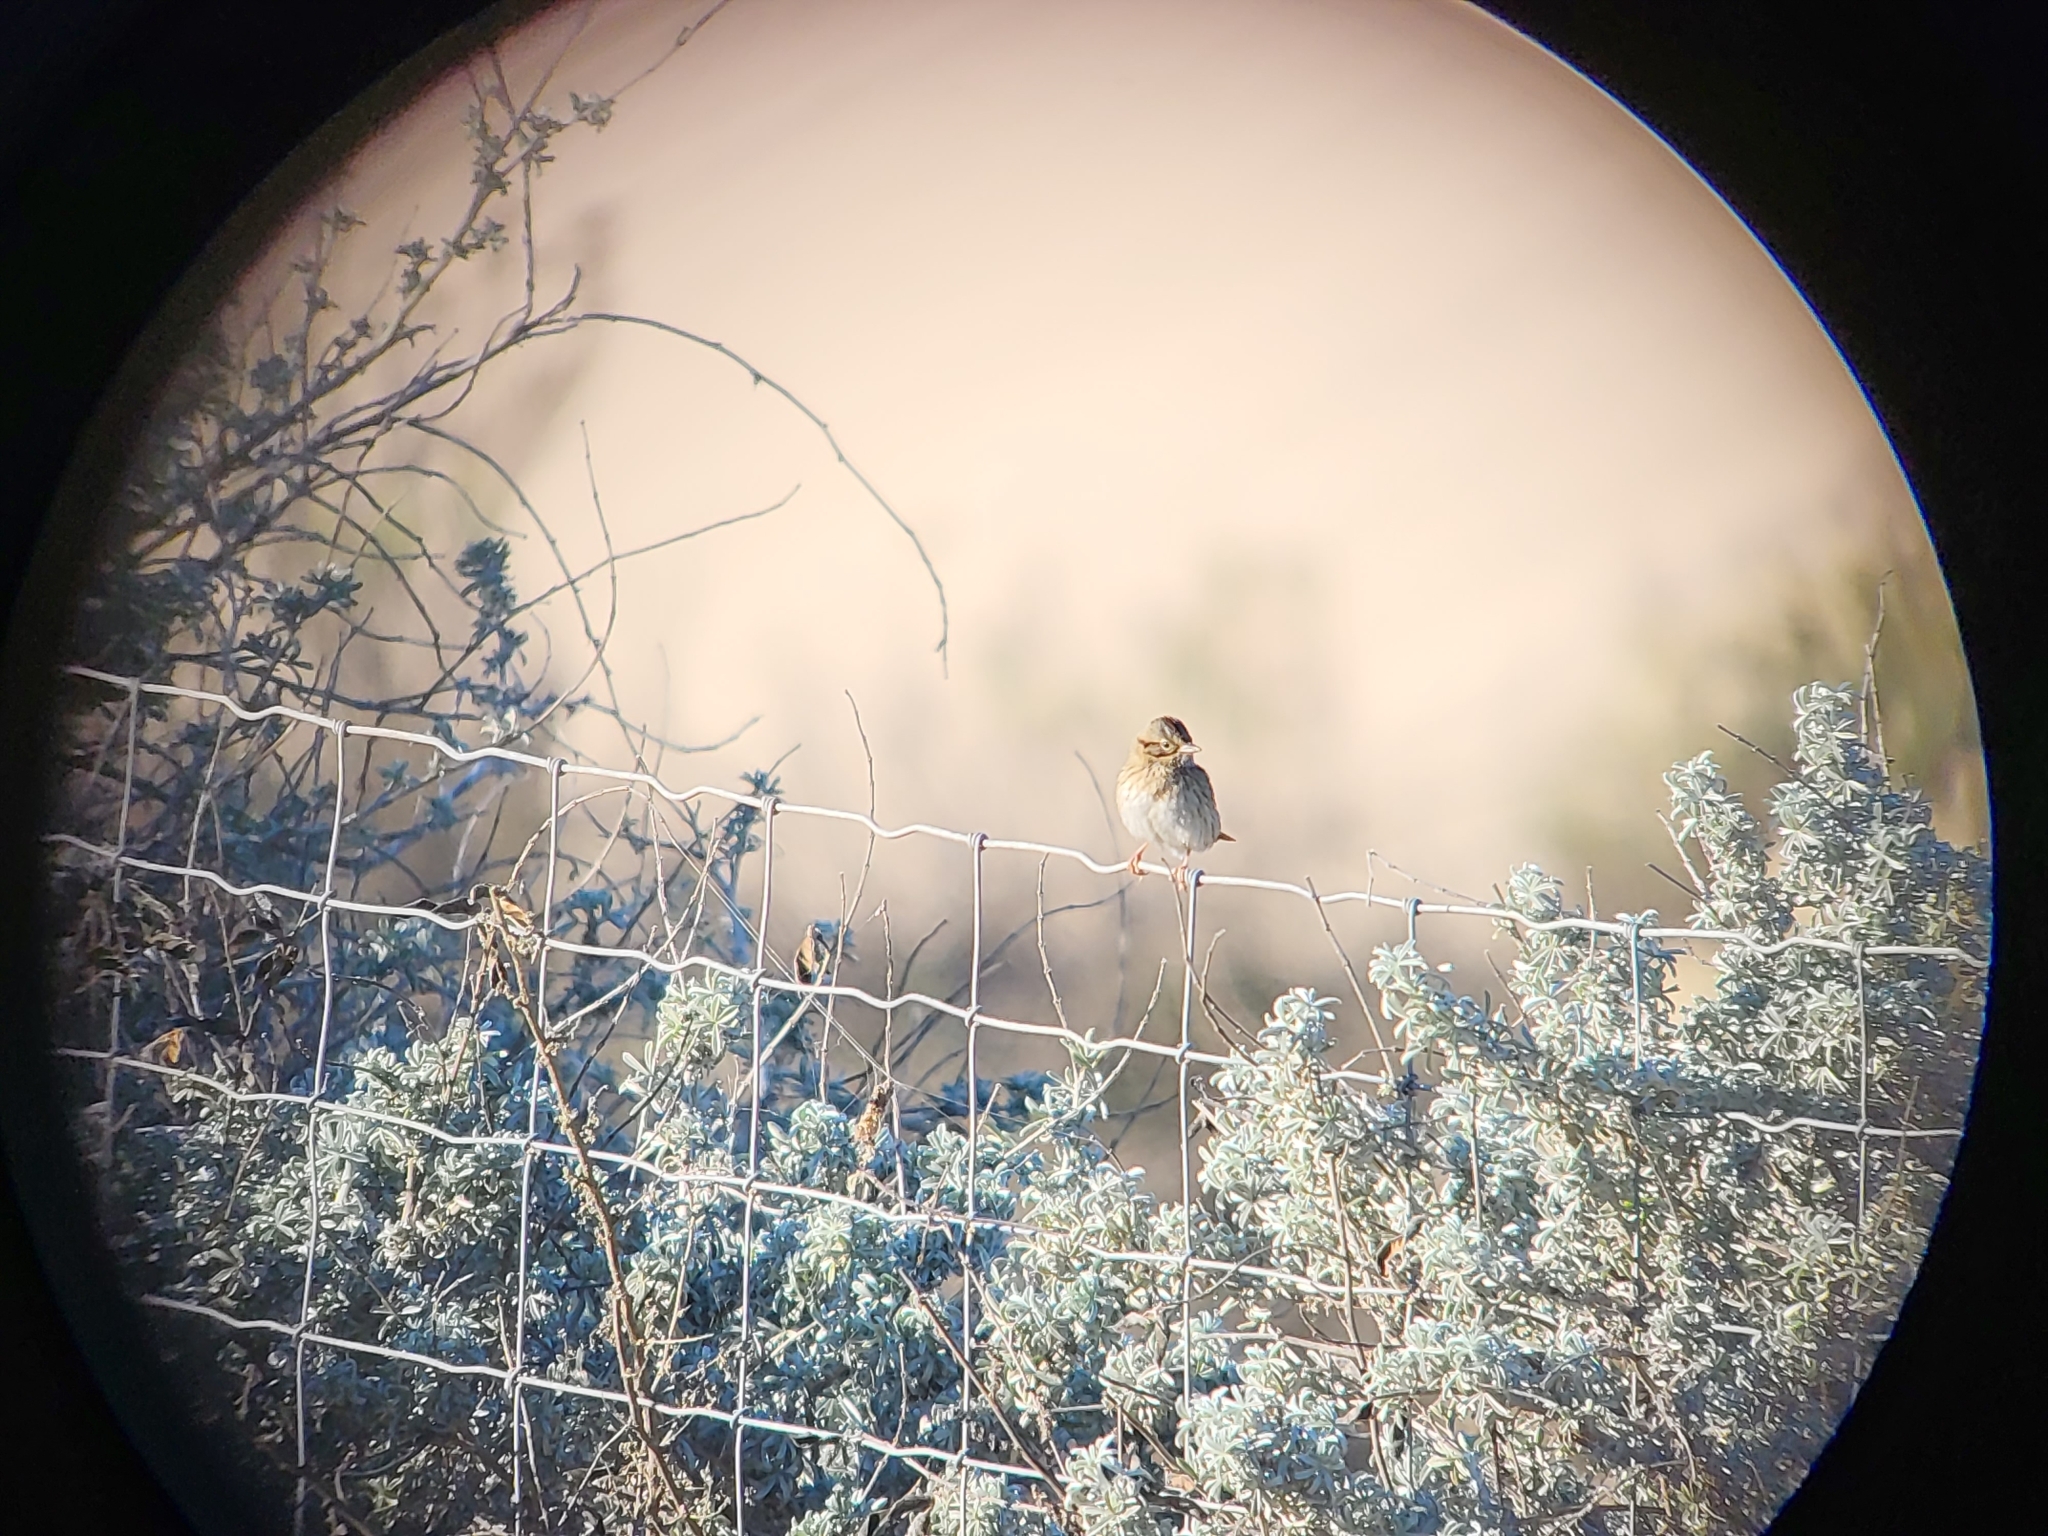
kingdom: Animalia
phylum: Chordata
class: Aves
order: Passeriformes
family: Passerellidae
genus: Melospiza
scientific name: Melospiza lincolnii
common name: Lincoln's sparrow
